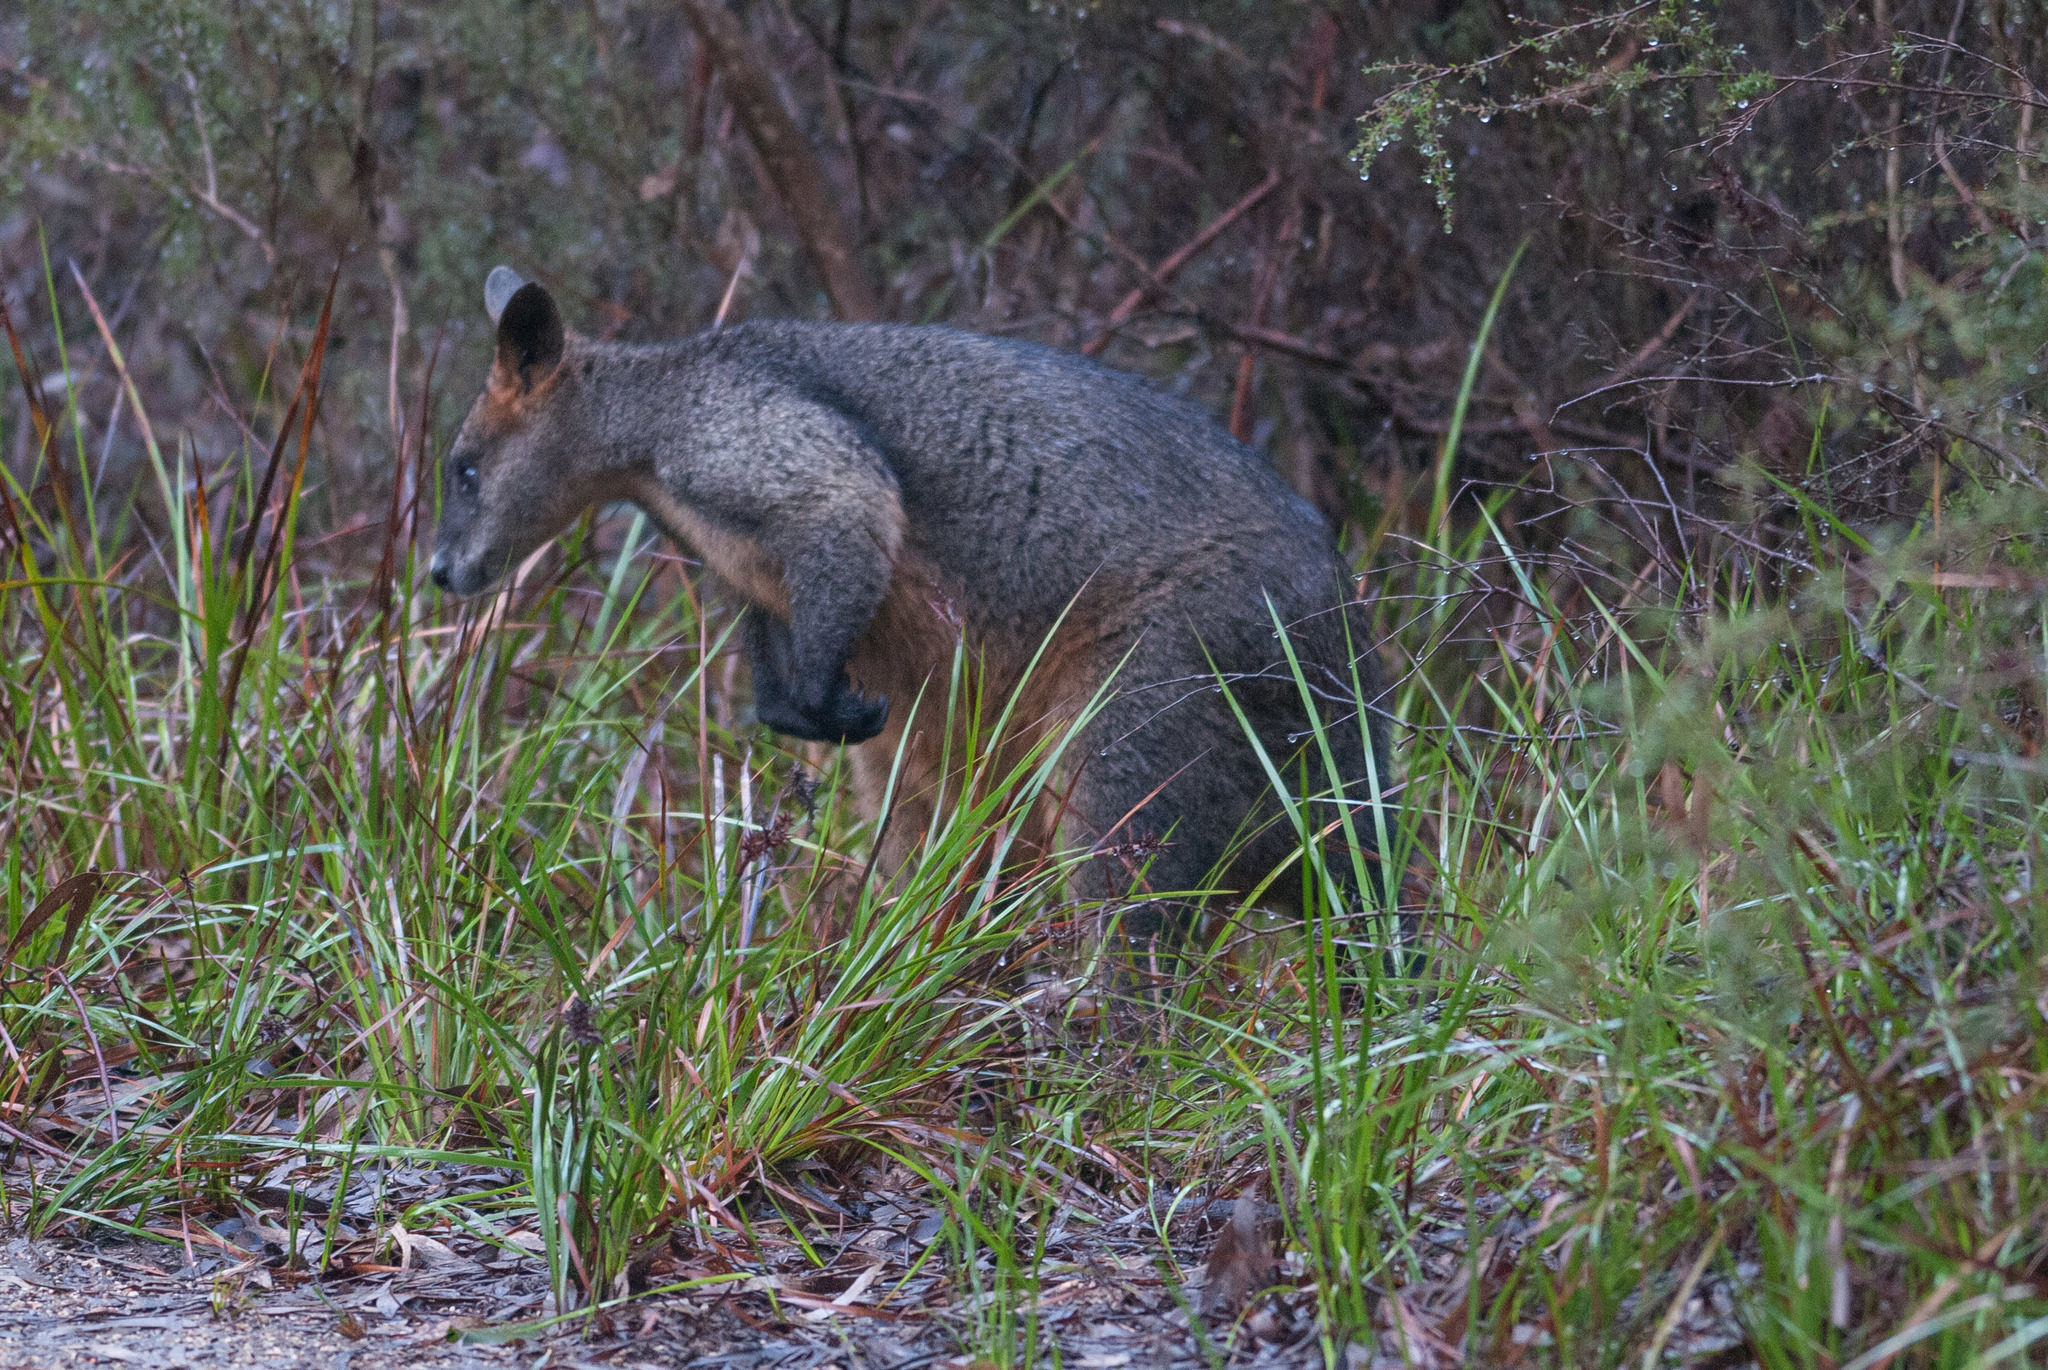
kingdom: Animalia
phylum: Chordata
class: Mammalia
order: Diprotodontia
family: Macropodidae
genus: Wallabia
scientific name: Wallabia bicolor
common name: Swamp wallaby
